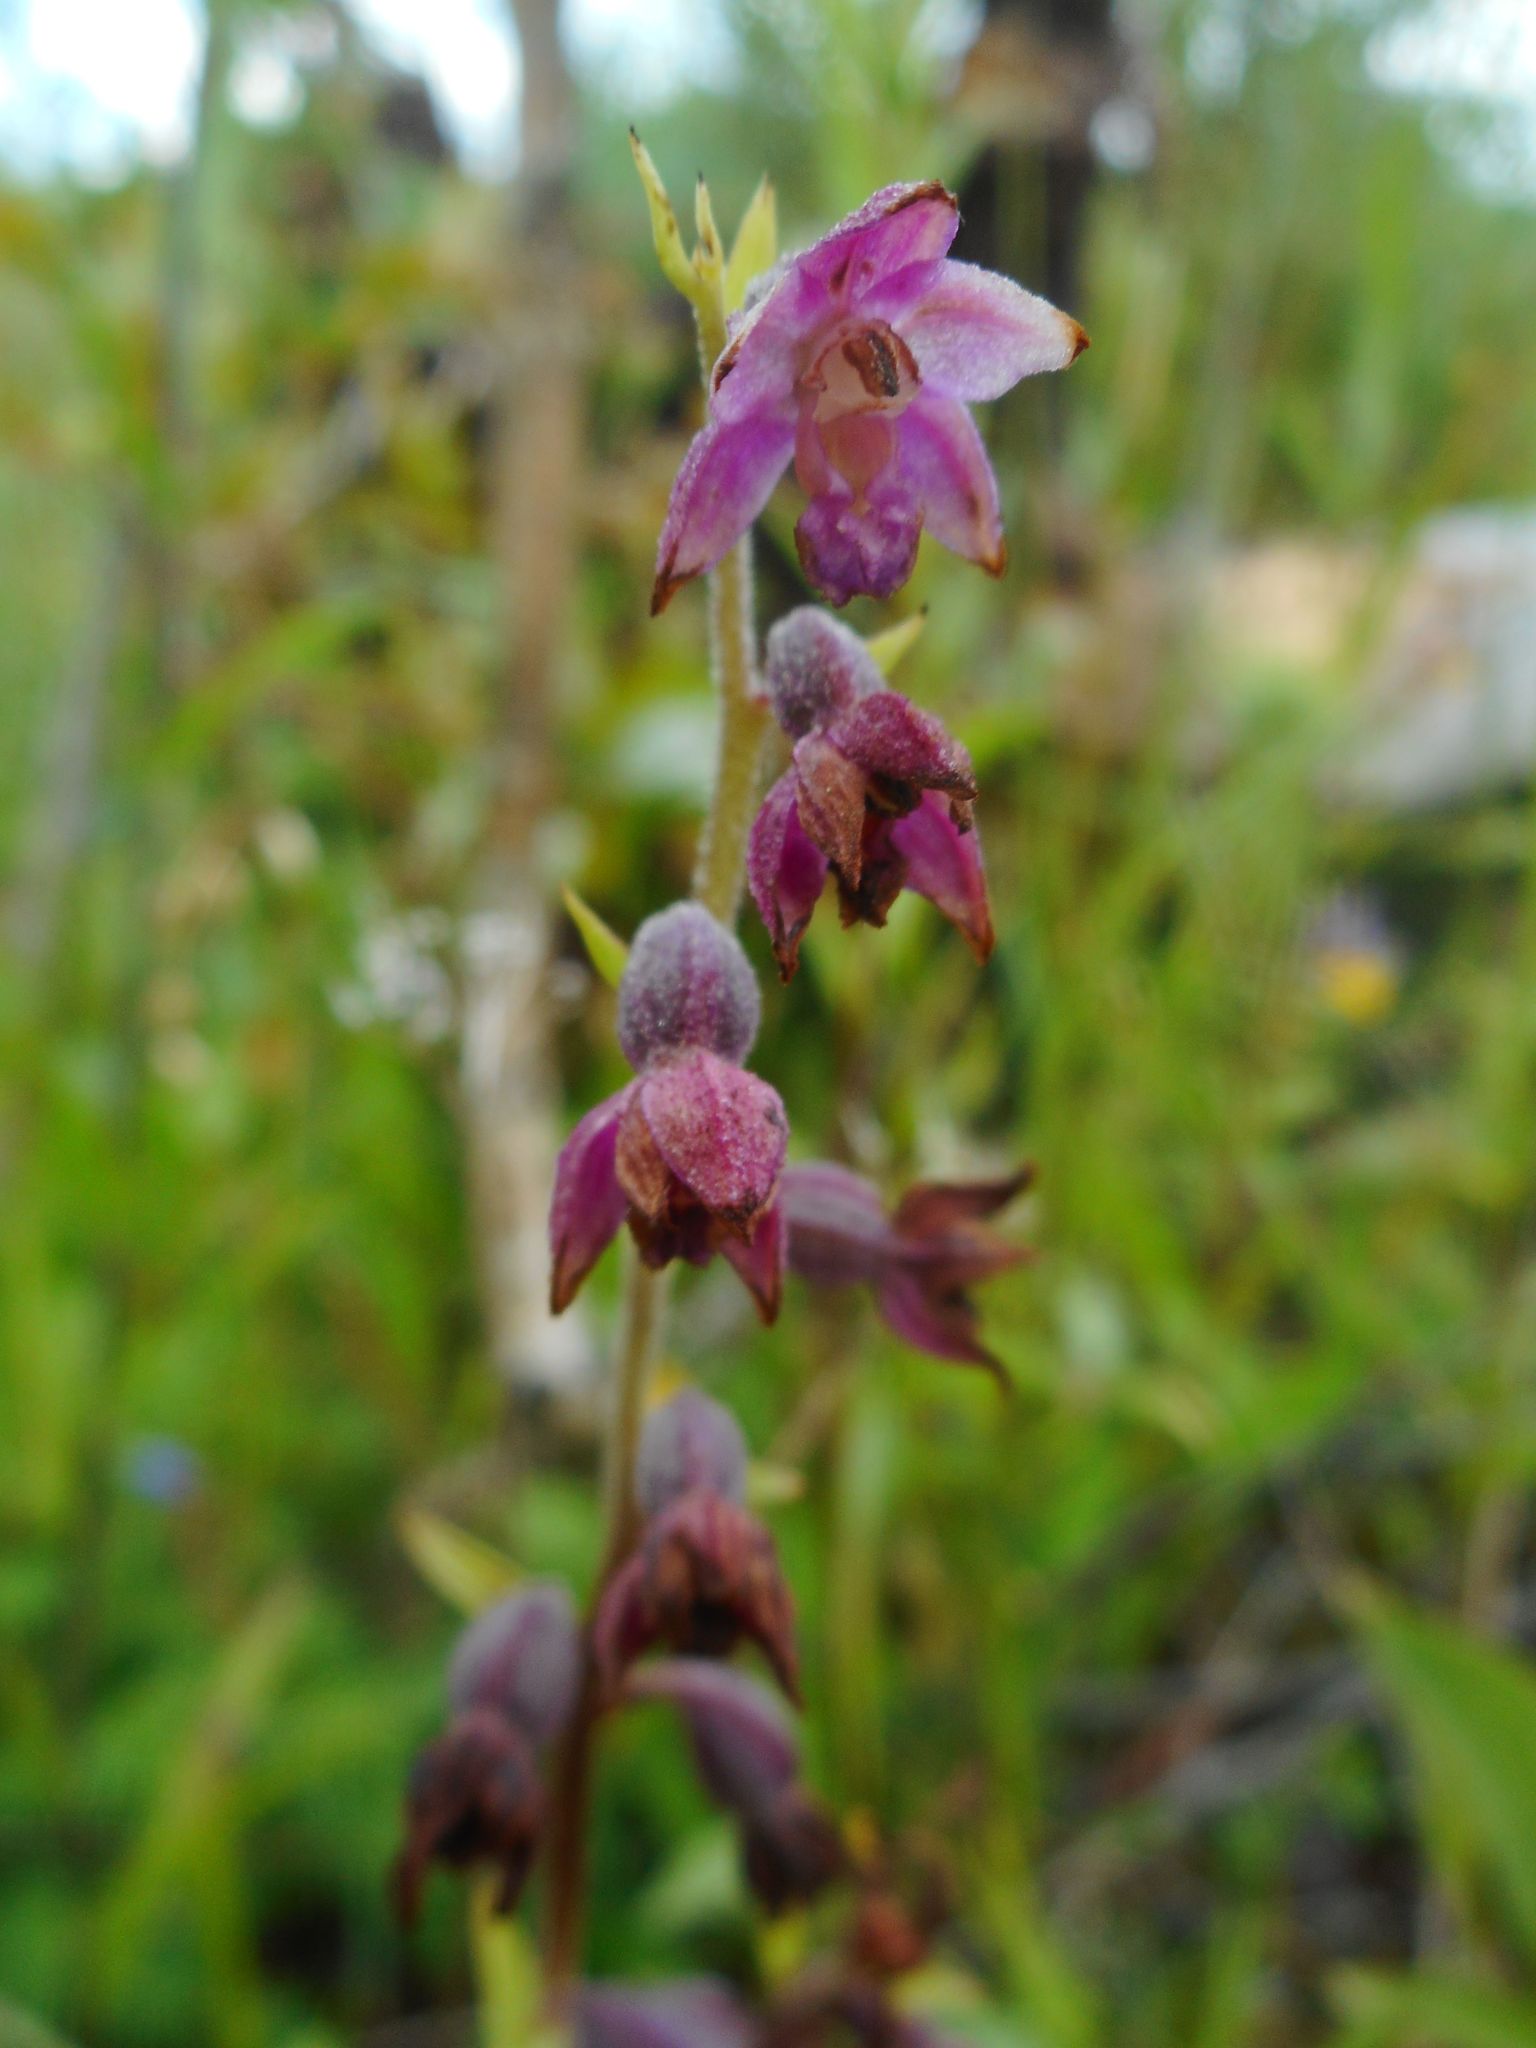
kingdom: Plantae
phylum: Tracheophyta
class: Liliopsida
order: Asparagales
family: Orchidaceae
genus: Epipactis
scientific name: Epipactis atrorubens
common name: Dark-red helleborine
